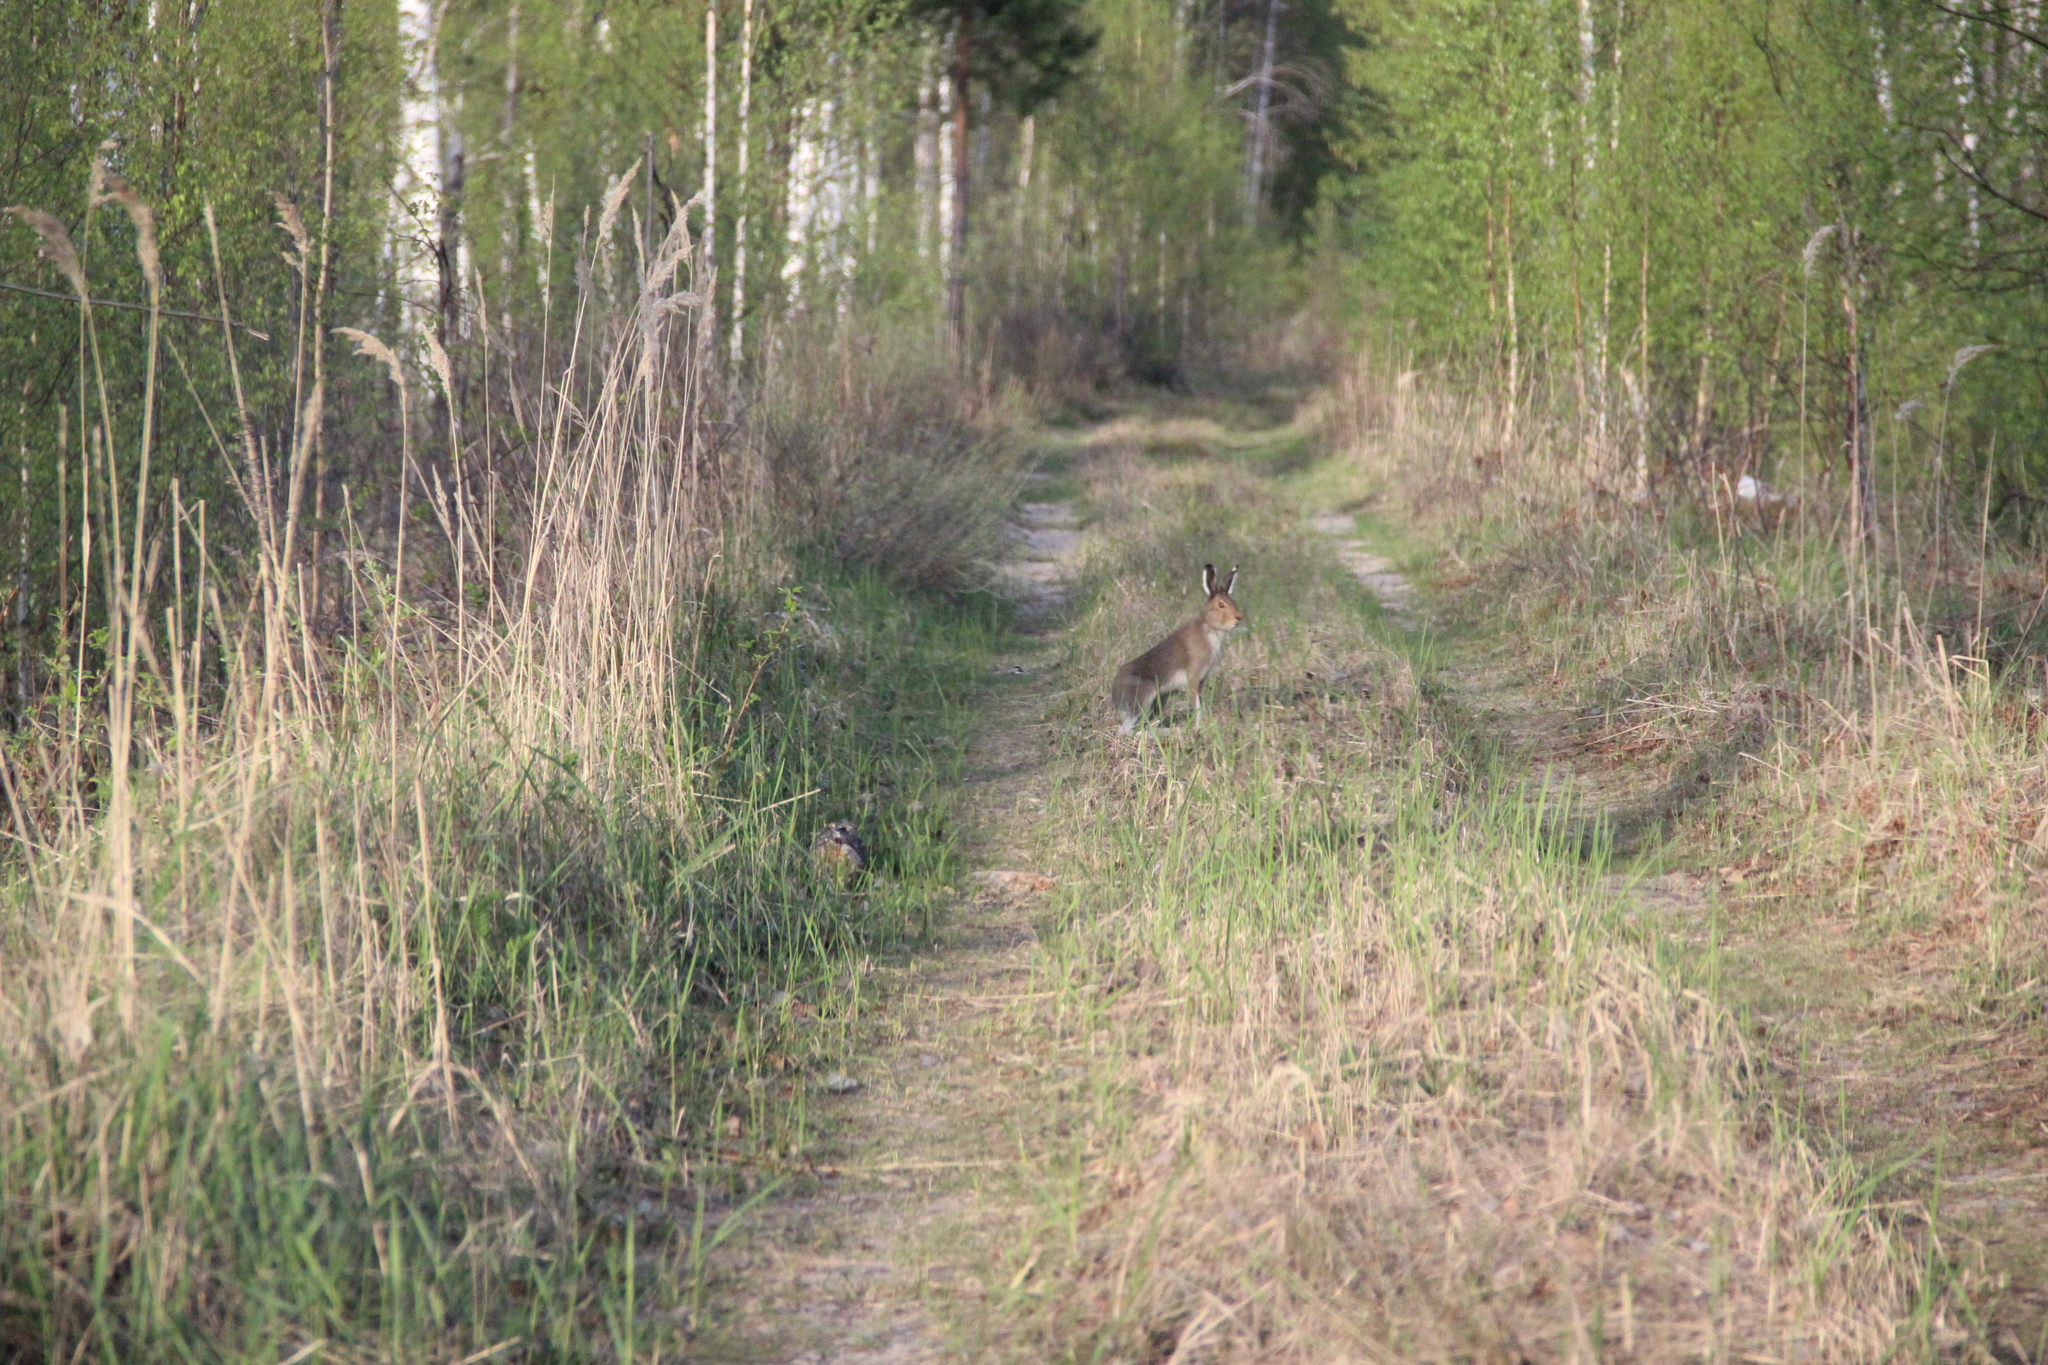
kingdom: Animalia
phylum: Chordata
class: Mammalia
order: Lagomorpha
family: Leporidae
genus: Lepus
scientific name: Lepus timidus
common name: Mountain hare
